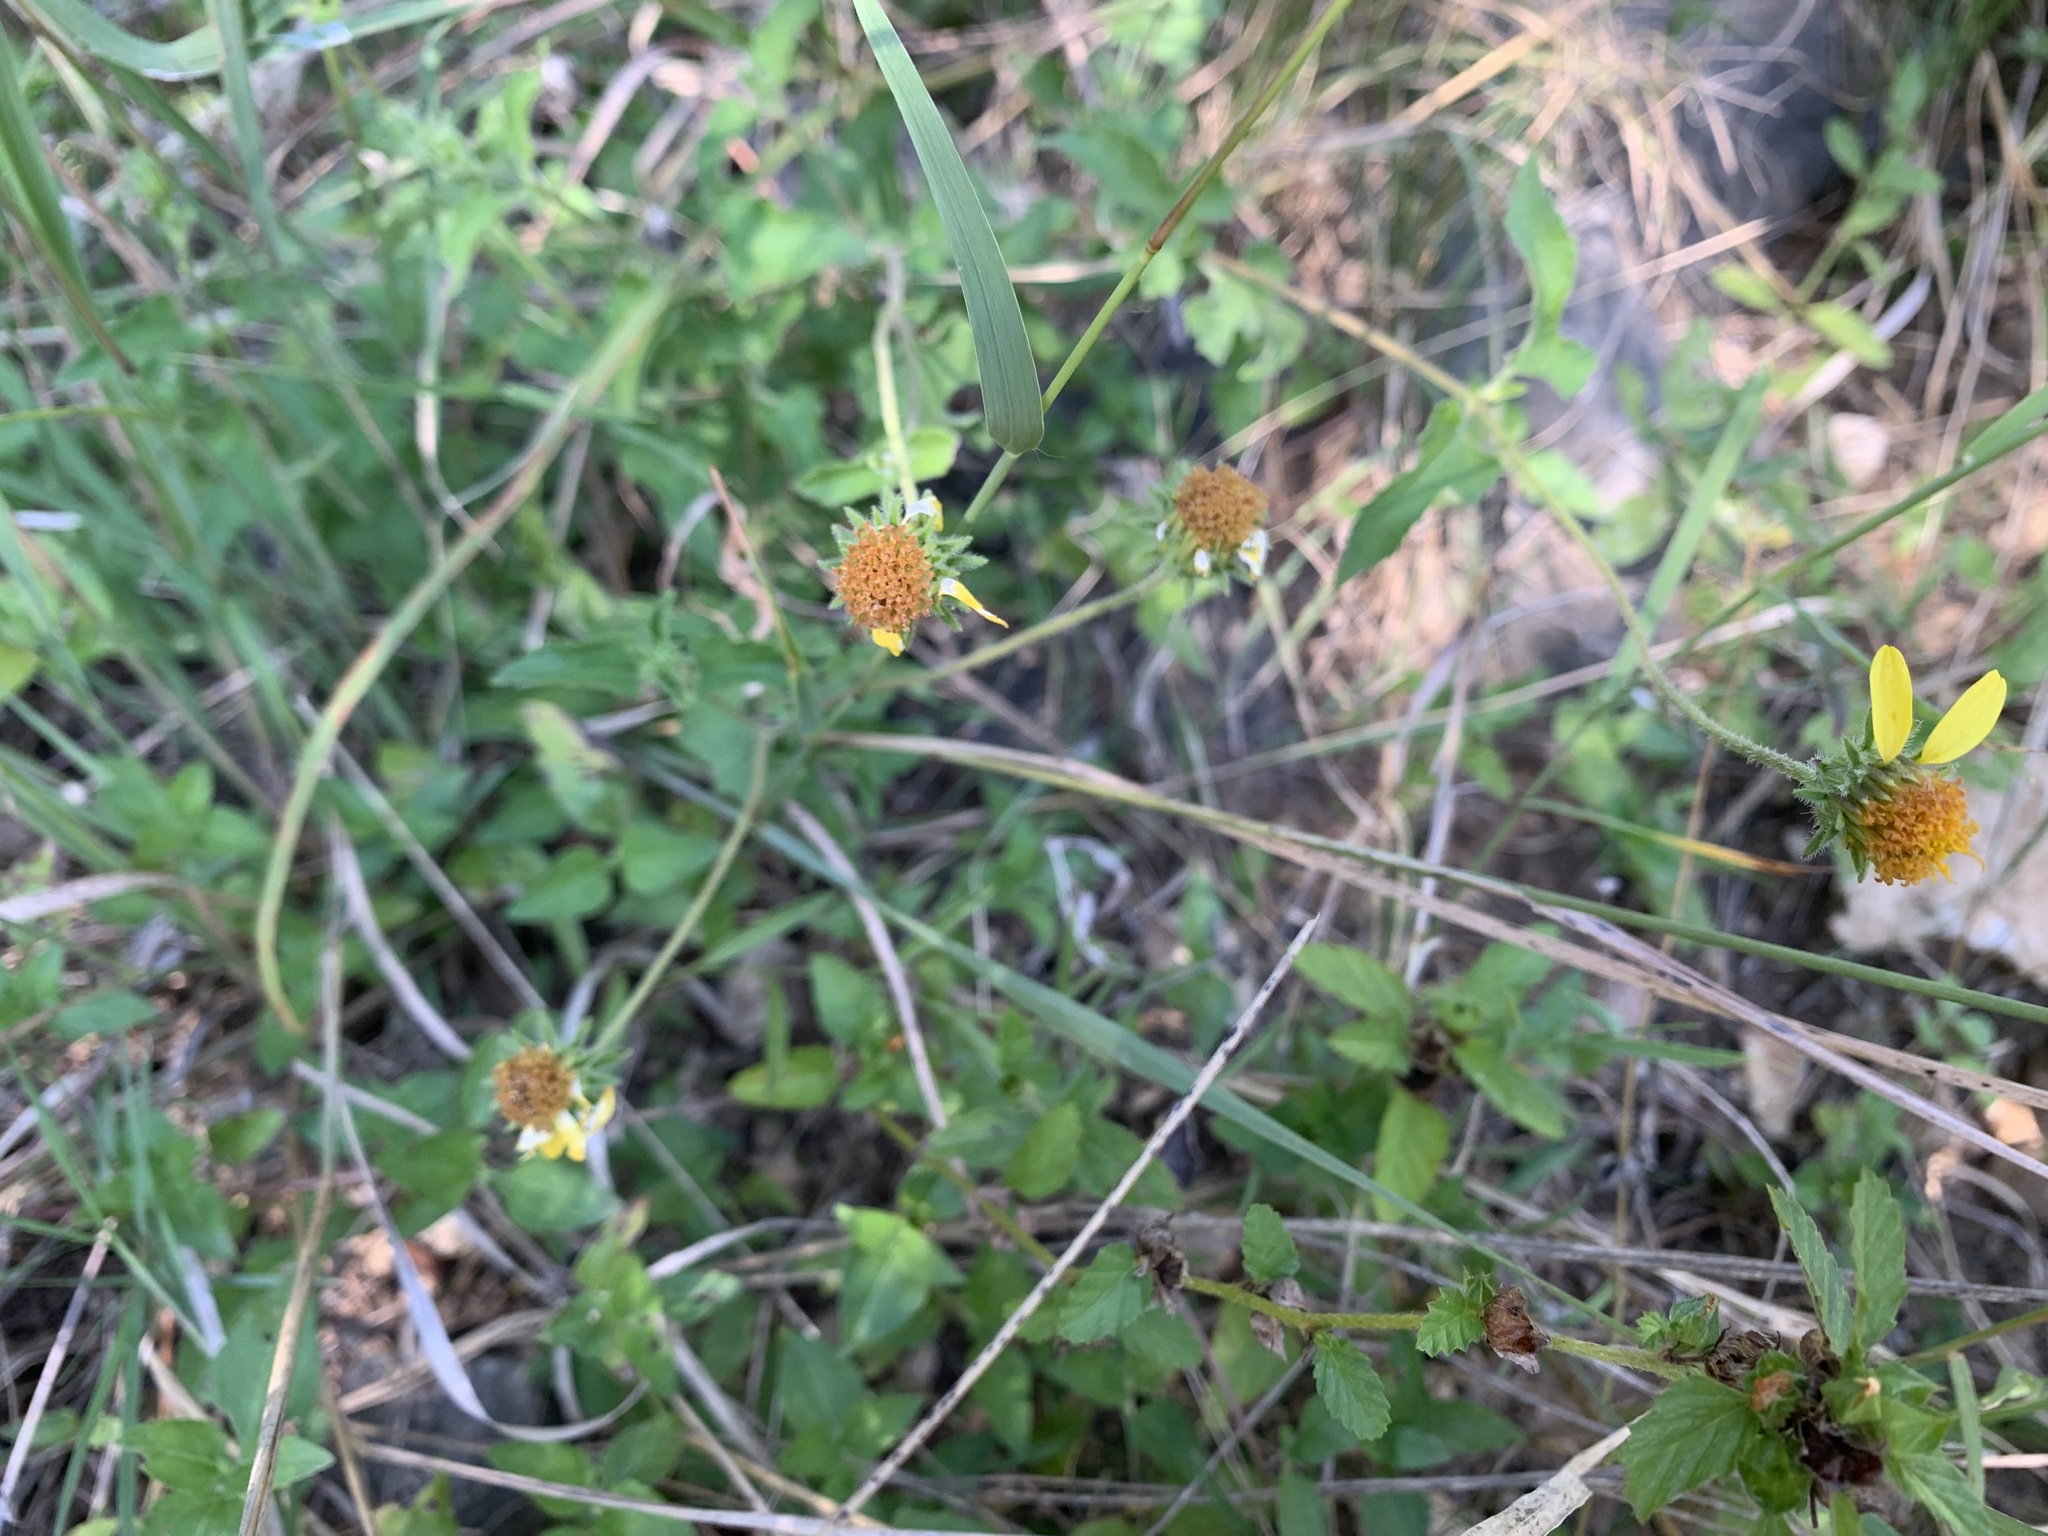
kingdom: Plantae
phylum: Tracheophyta
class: Magnoliopsida
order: Asterales
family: Asteraceae
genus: Simsia
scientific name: Simsia calva
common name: Awnless bush-sunflower
